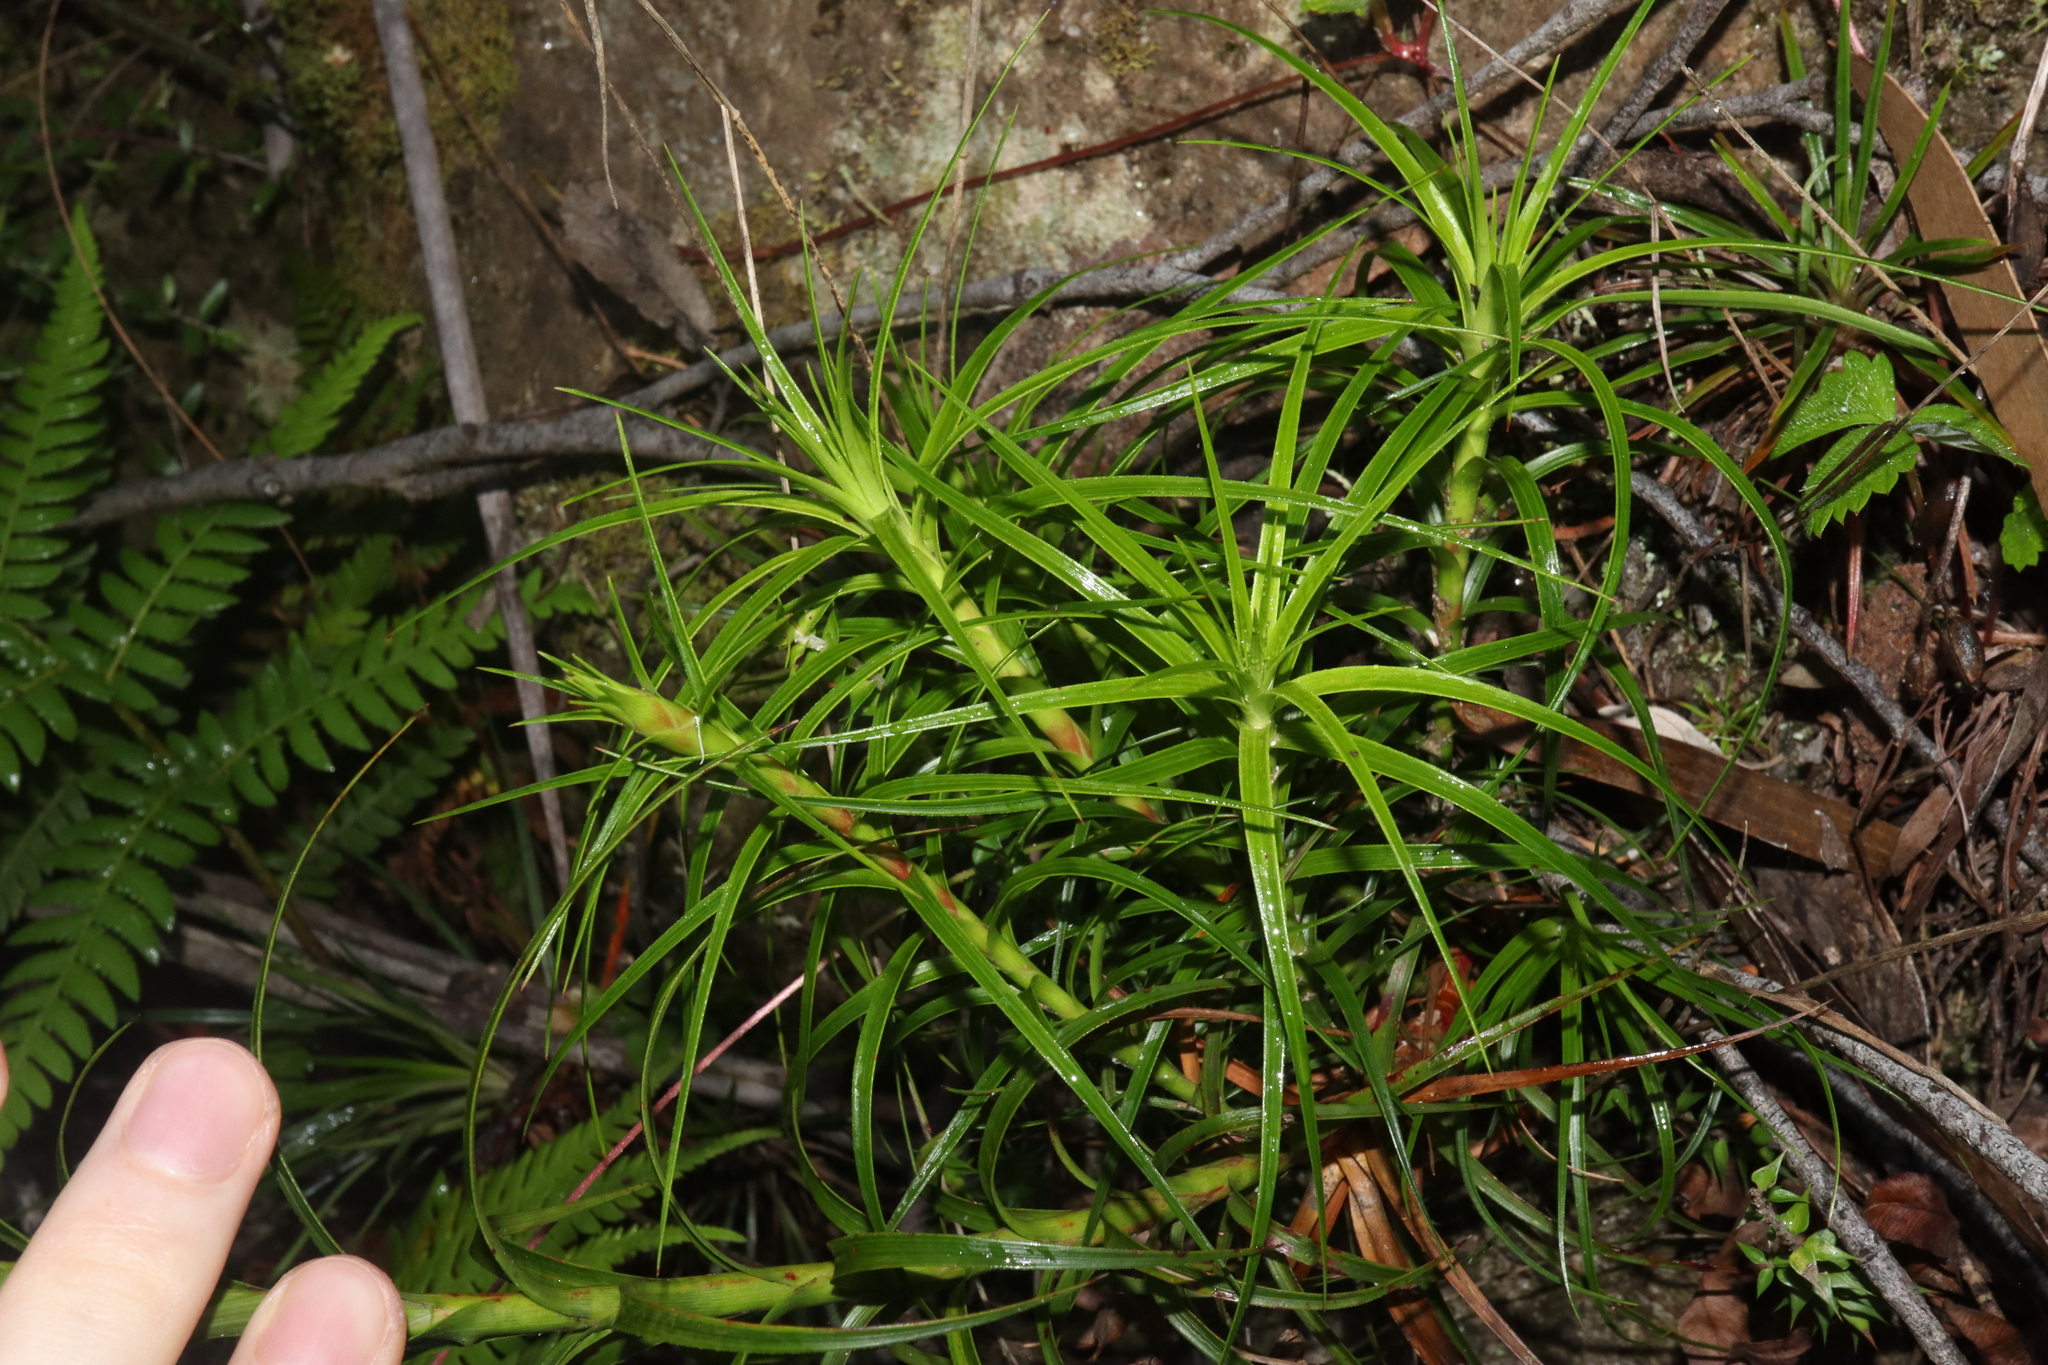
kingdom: Plantae
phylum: Tracheophyta
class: Magnoliopsida
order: Ericales
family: Ericaceae
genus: Dracophyllum
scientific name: Dracophyllum secundum
